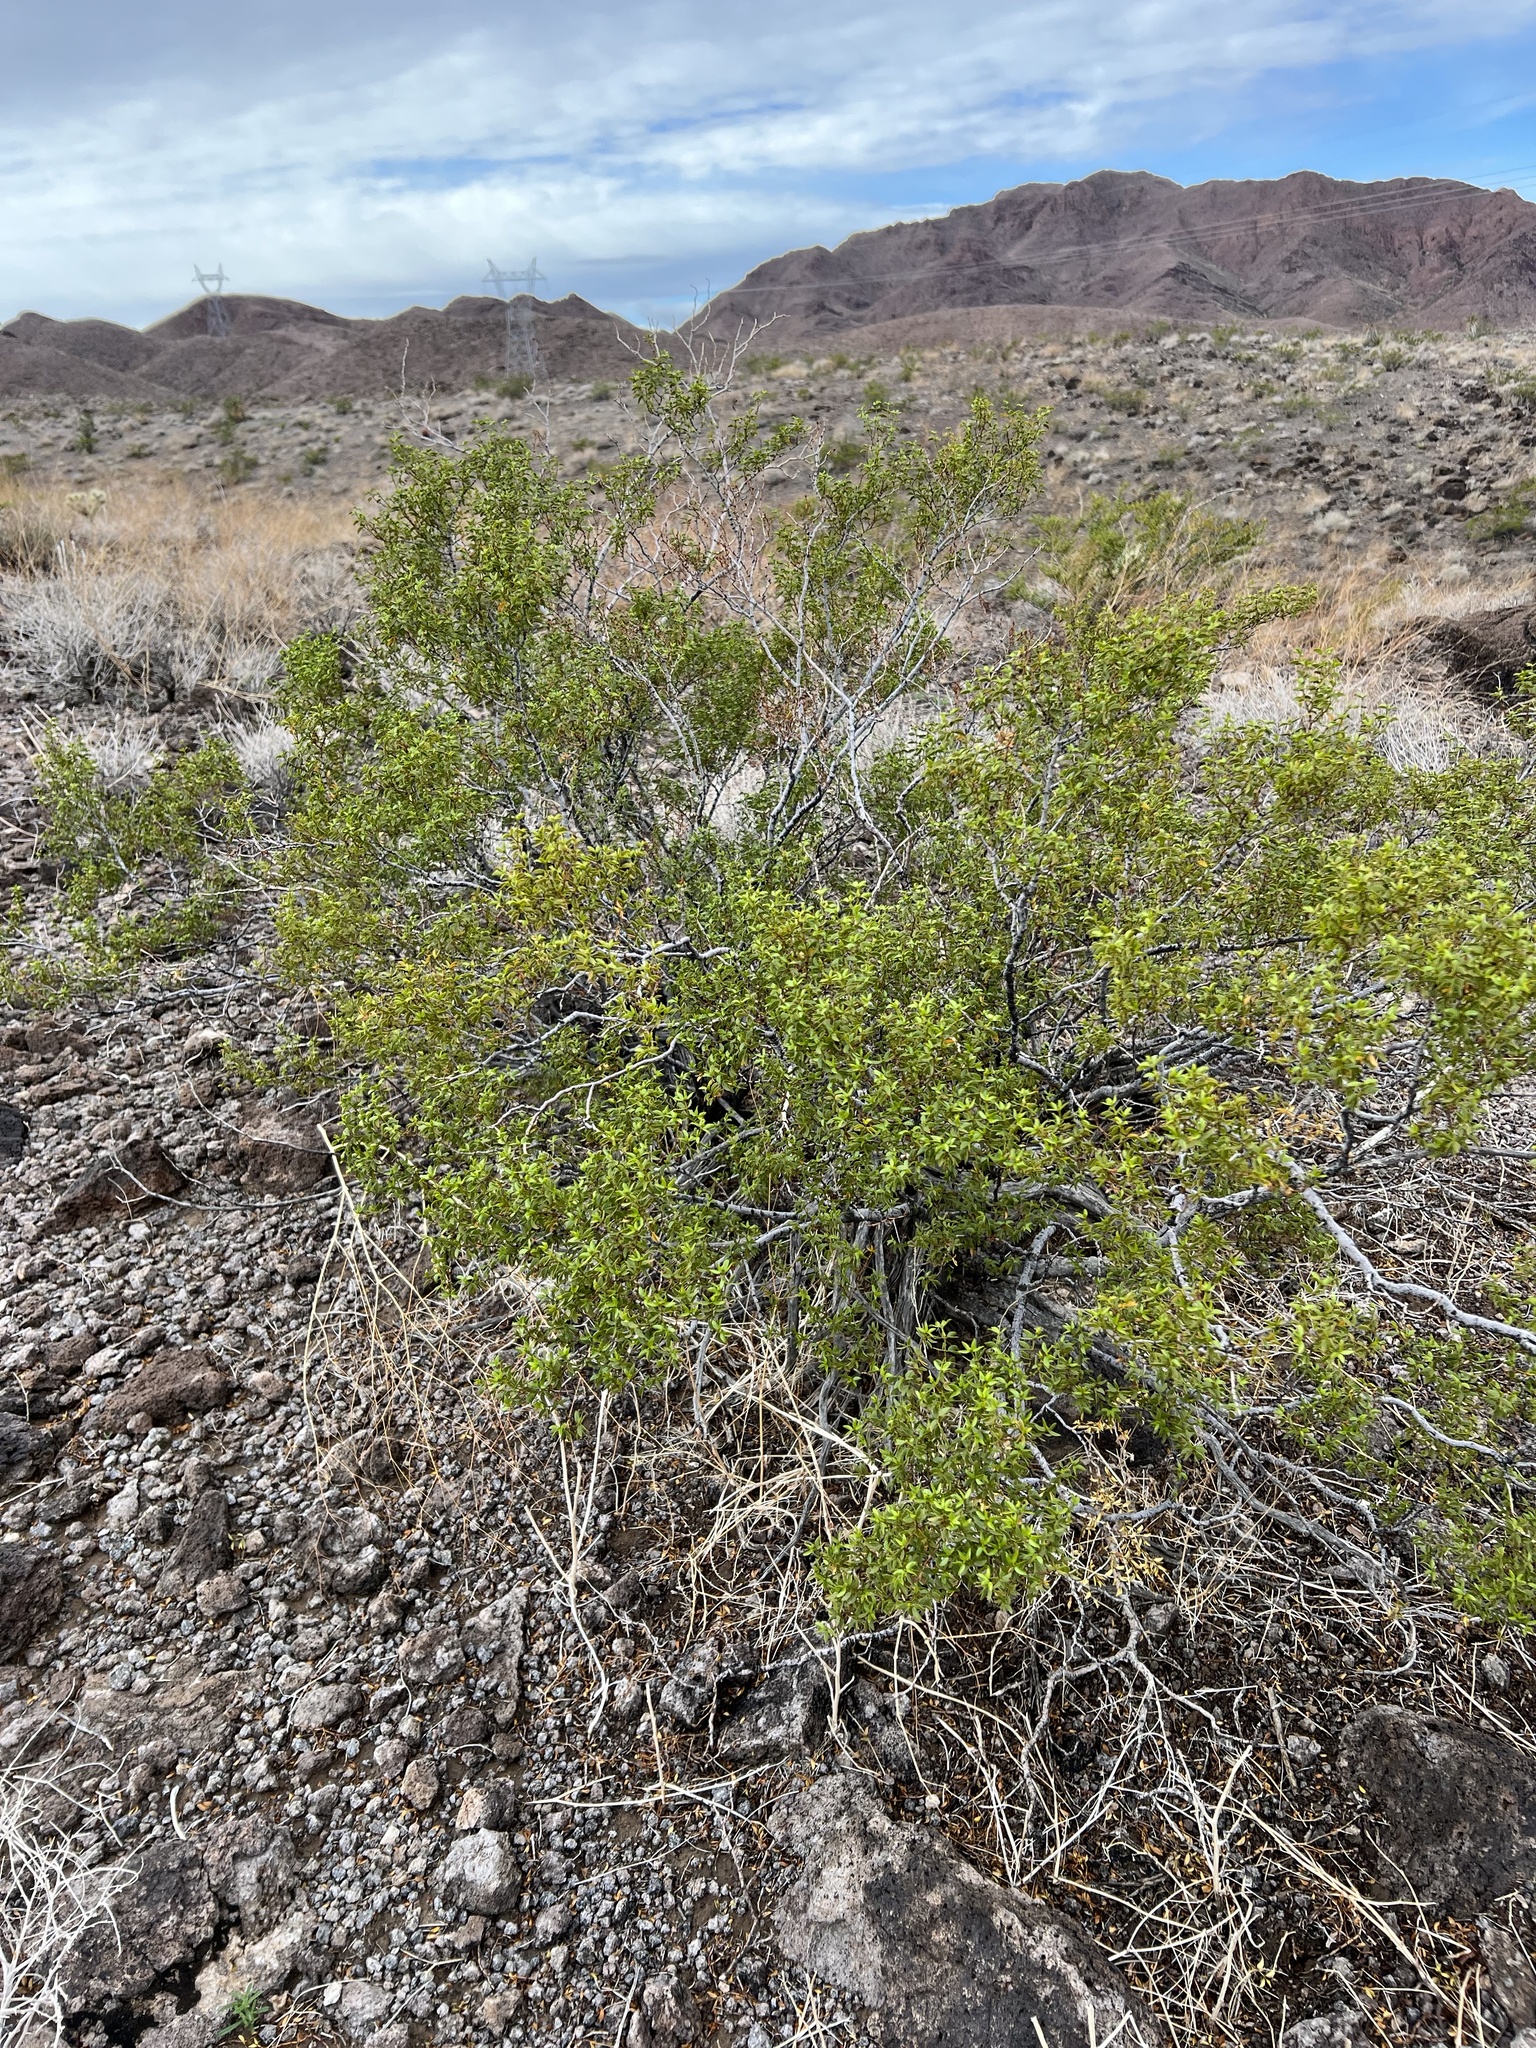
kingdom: Plantae
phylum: Tracheophyta
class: Magnoliopsida
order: Zygophyllales
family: Zygophyllaceae
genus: Larrea
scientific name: Larrea tridentata
